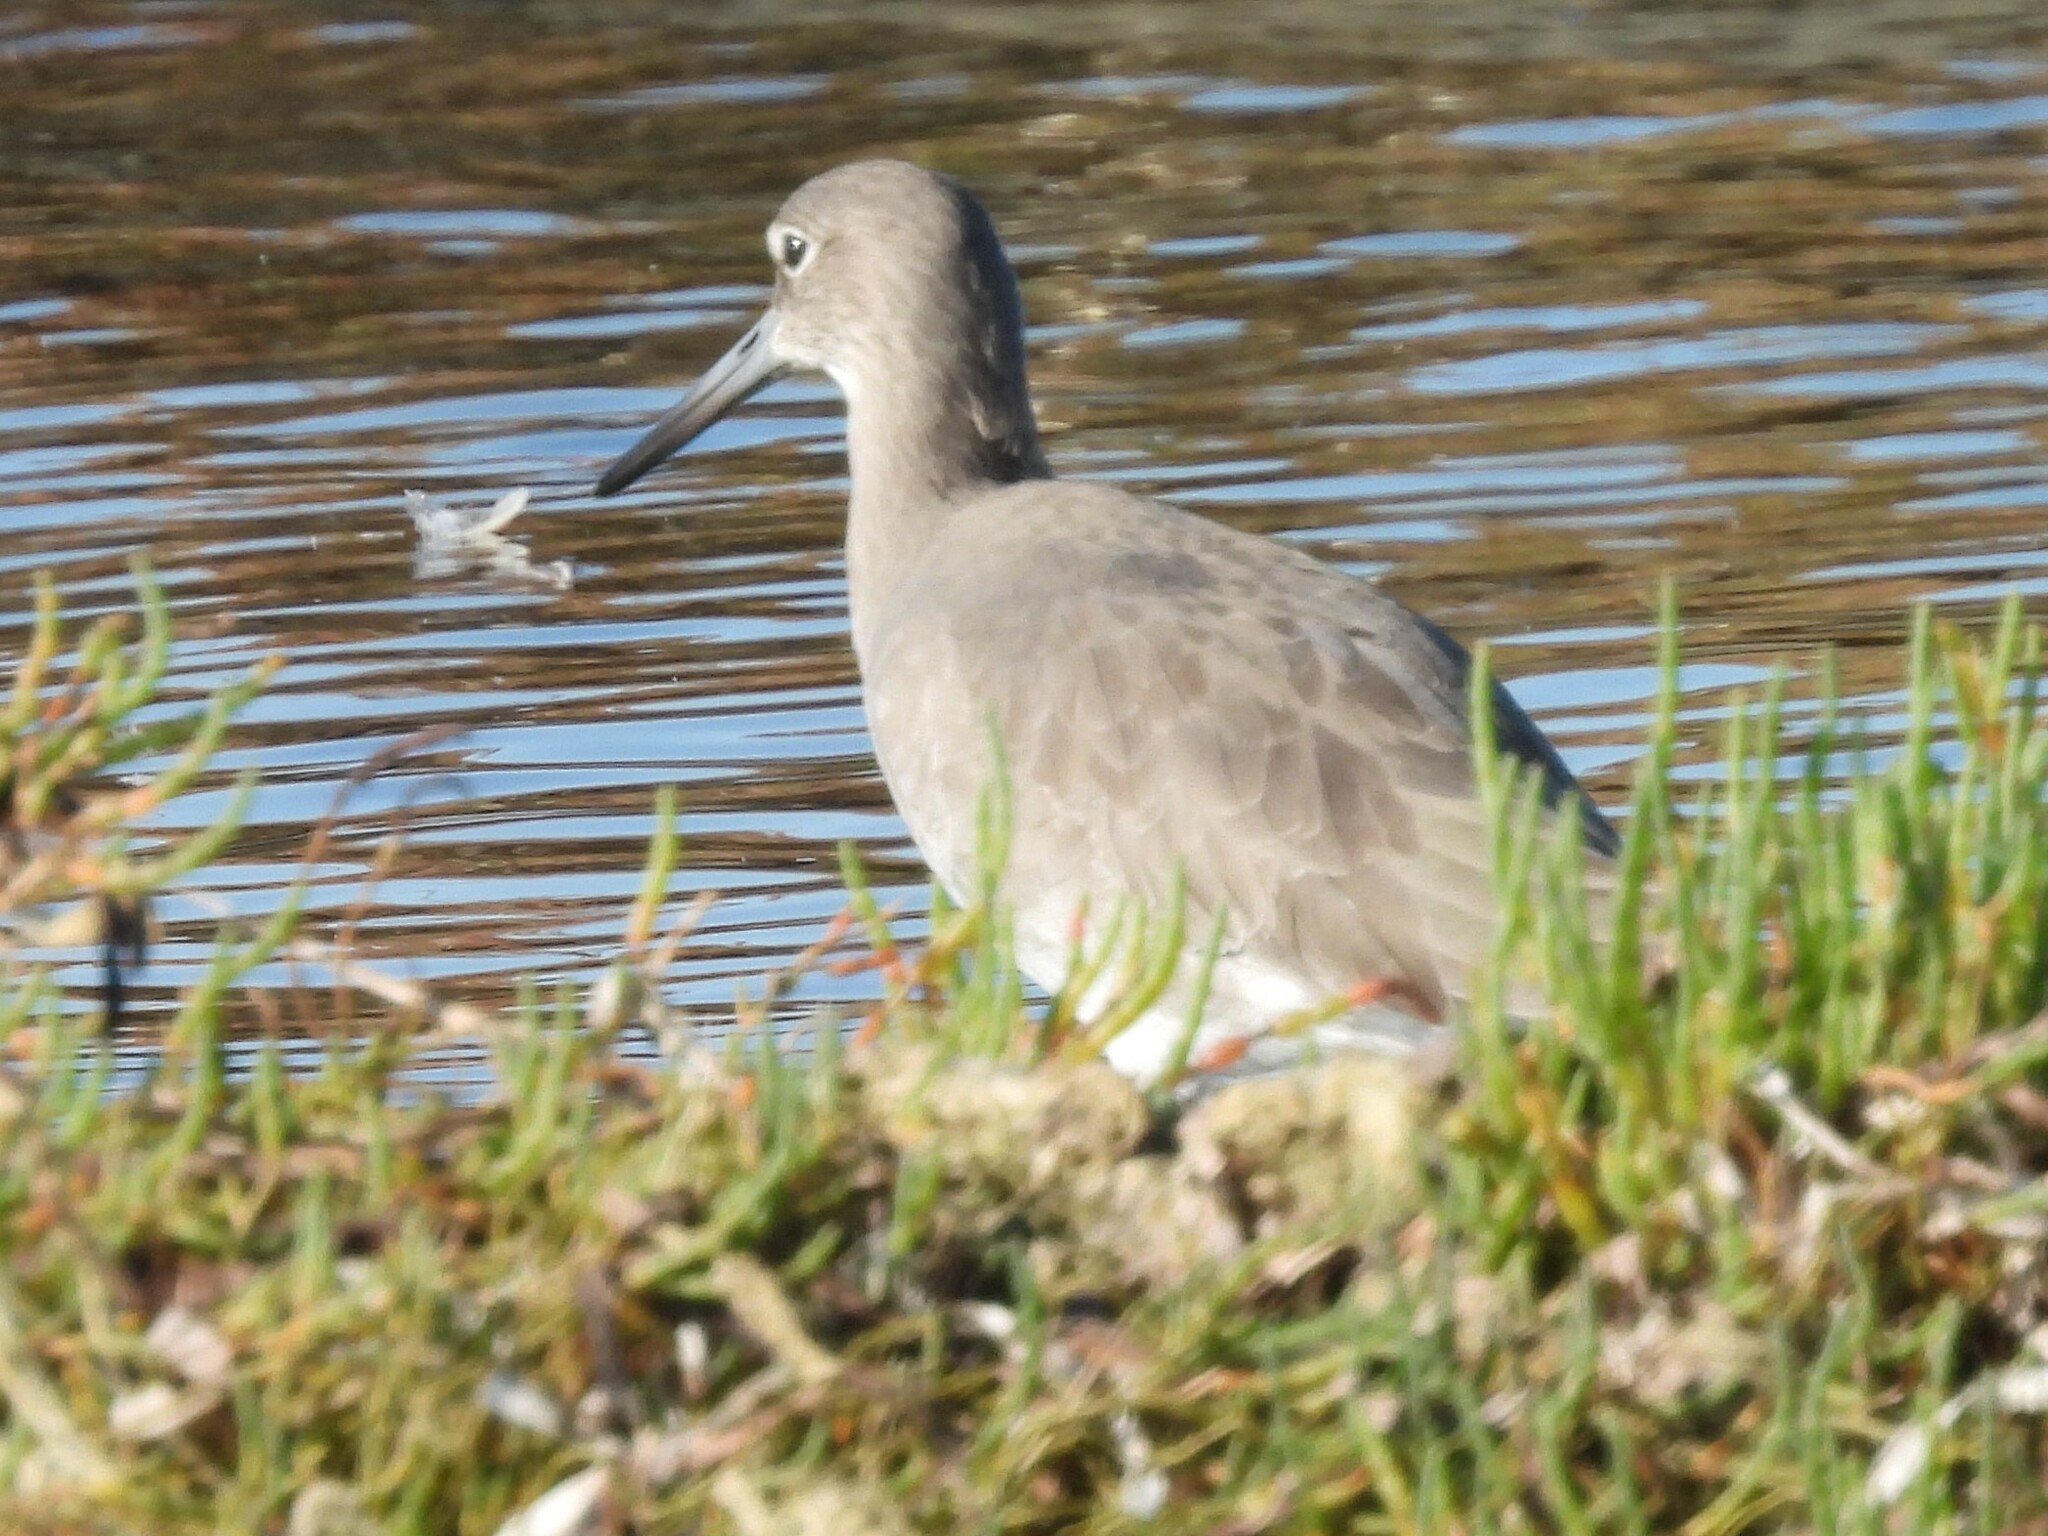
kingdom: Animalia
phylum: Chordata
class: Aves
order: Charadriiformes
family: Scolopacidae
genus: Tringa
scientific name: Tringa semipalmata
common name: Willet
